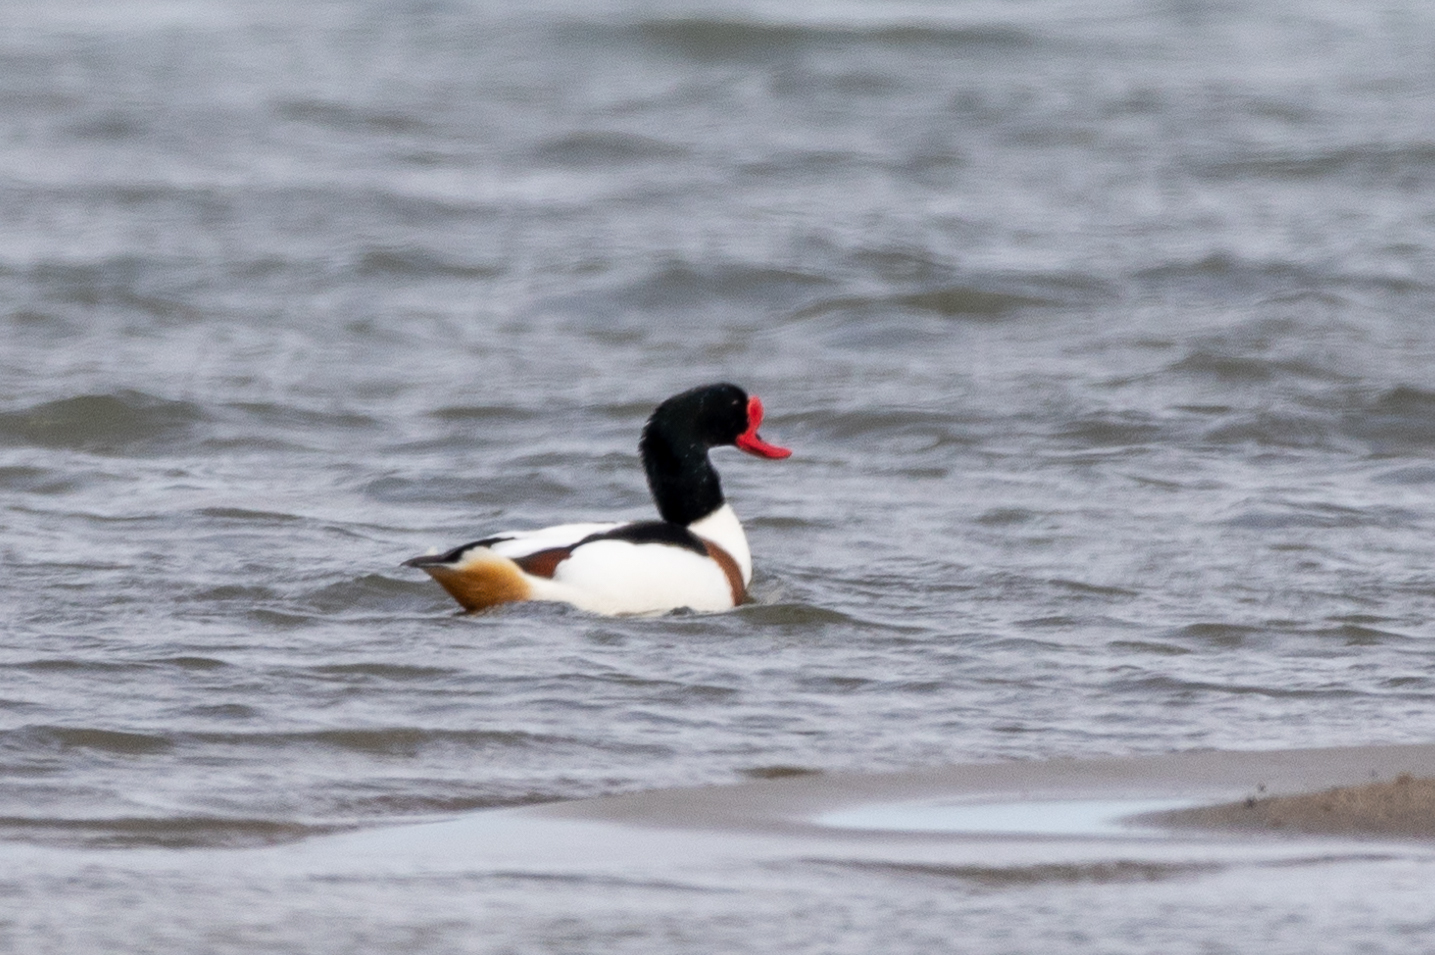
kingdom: Animalia
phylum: Chordata
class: Aves
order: Anseriformes
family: Anatidae
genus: Tadorna
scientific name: Tadorna tadorna
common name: Common shelduck
